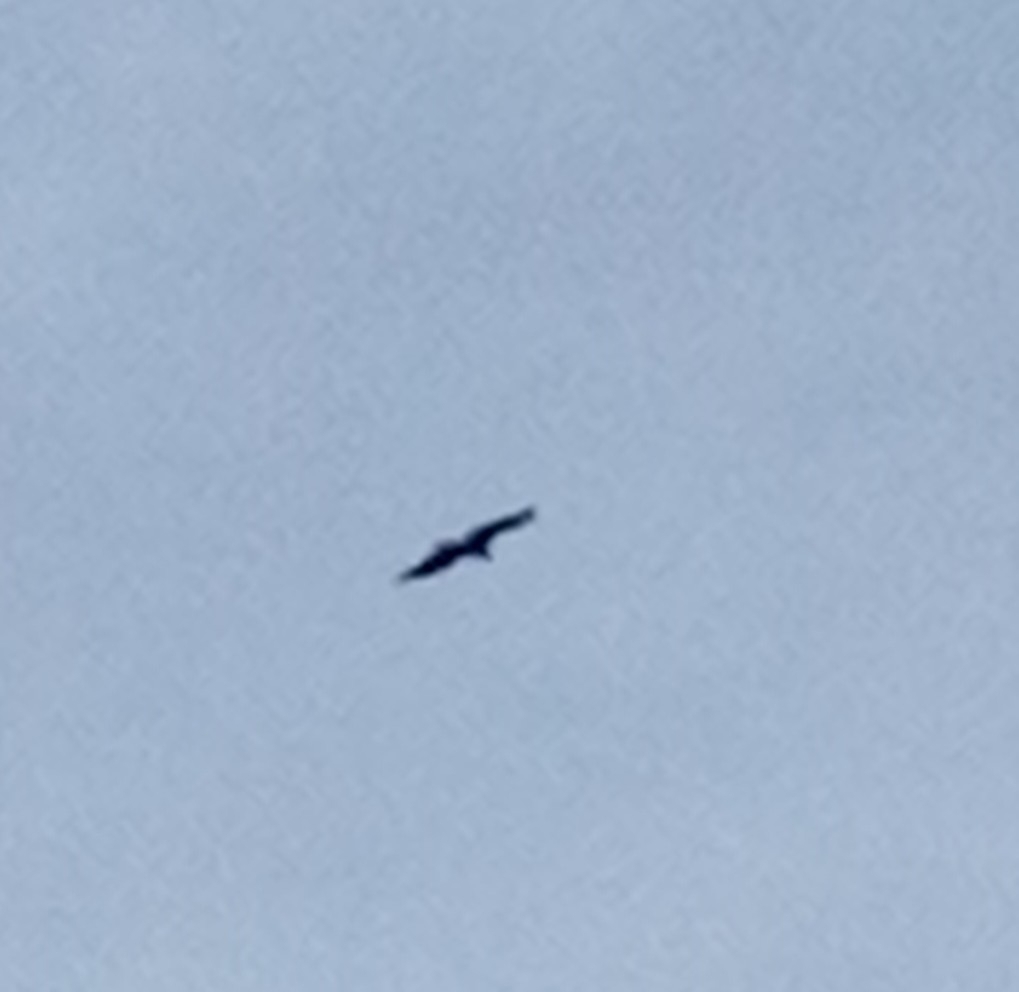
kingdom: Animalia
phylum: Chordata
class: Aves
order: Accipitriformes
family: Accipitridae
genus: Haliaeetus
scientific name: Haliaeetus albicilla
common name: White-tailed eagle
